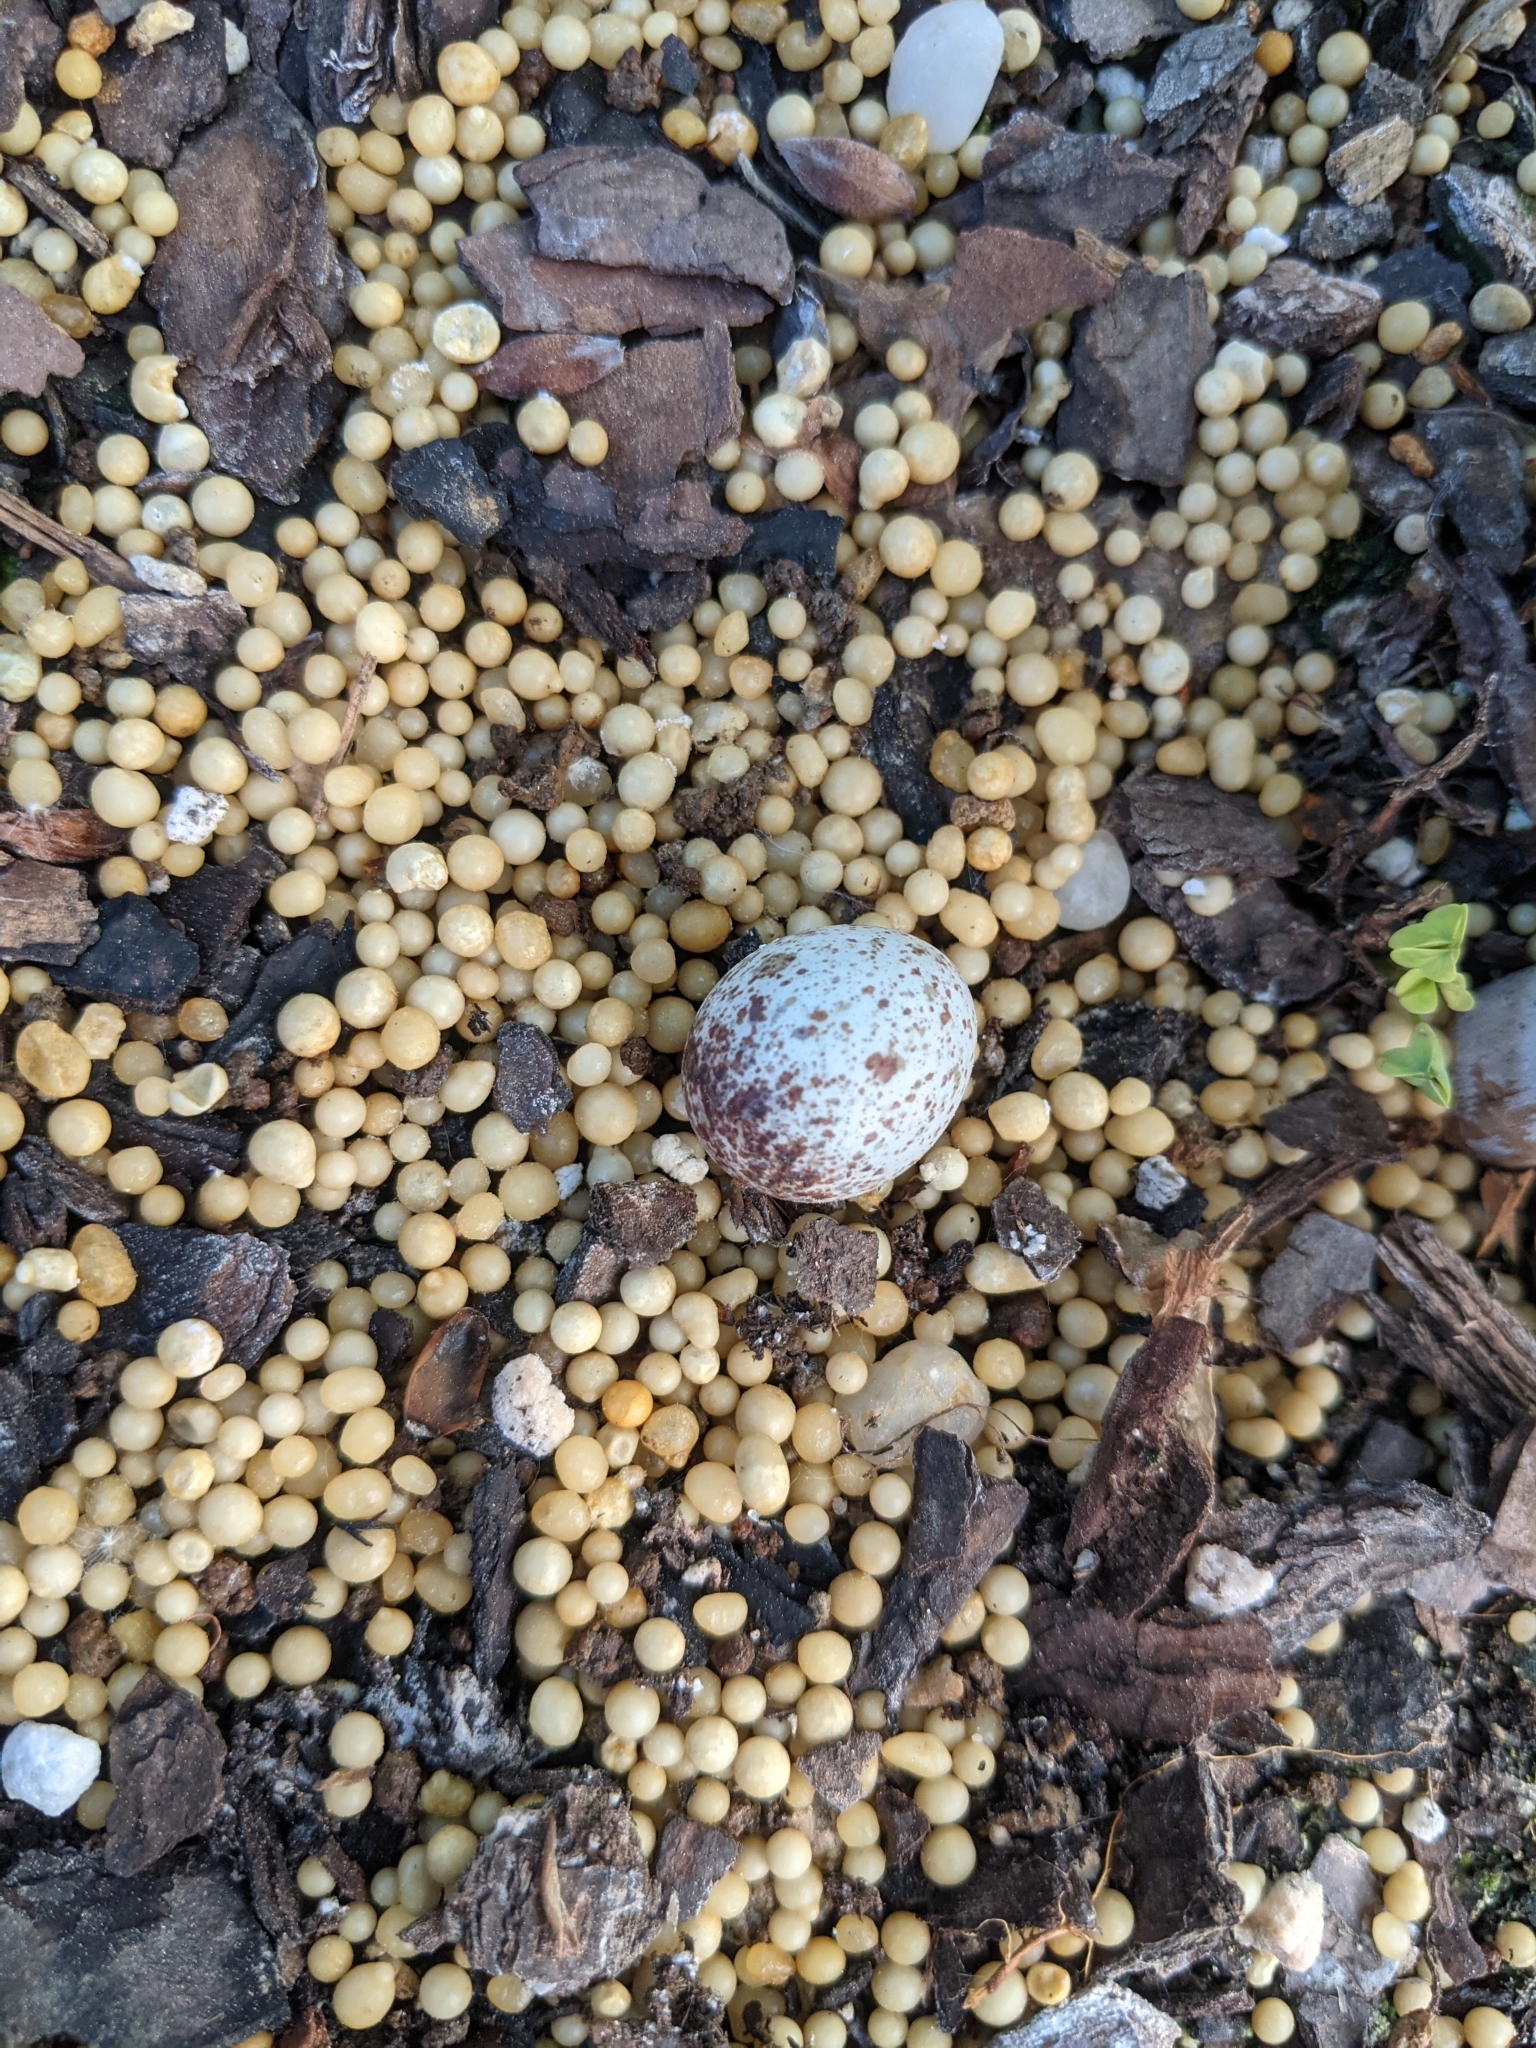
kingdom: Animalia
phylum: Chordata
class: Aves
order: Passeriformes
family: Icteridae
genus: Molothrus
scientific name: Molothrus ater
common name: Brown-headed cowbird
